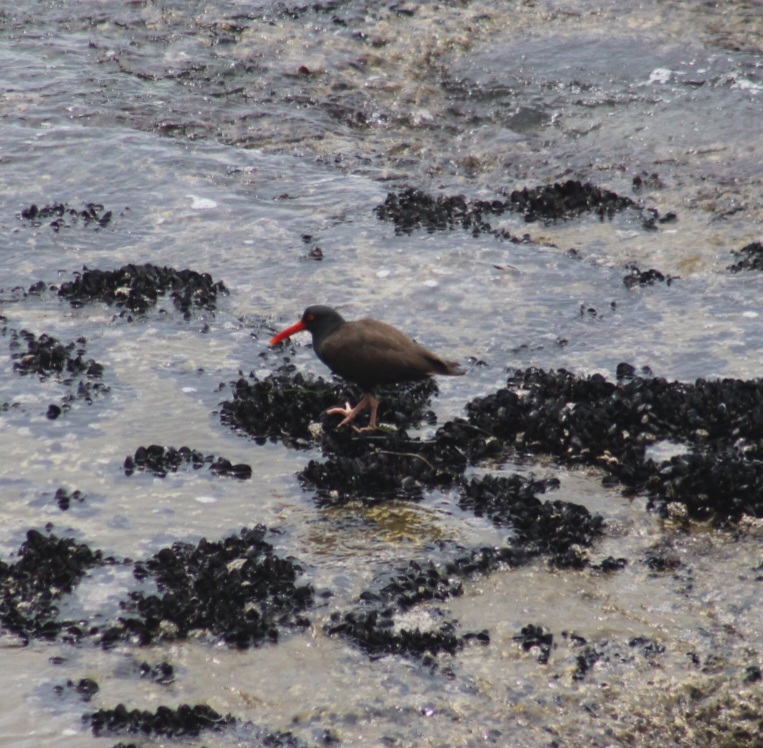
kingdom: Animalia
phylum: Chordata
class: Aves
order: Charadriiformes
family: Haematopodidae
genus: Haematopus
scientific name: Haematopus bachmani
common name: Black oystercatcher
